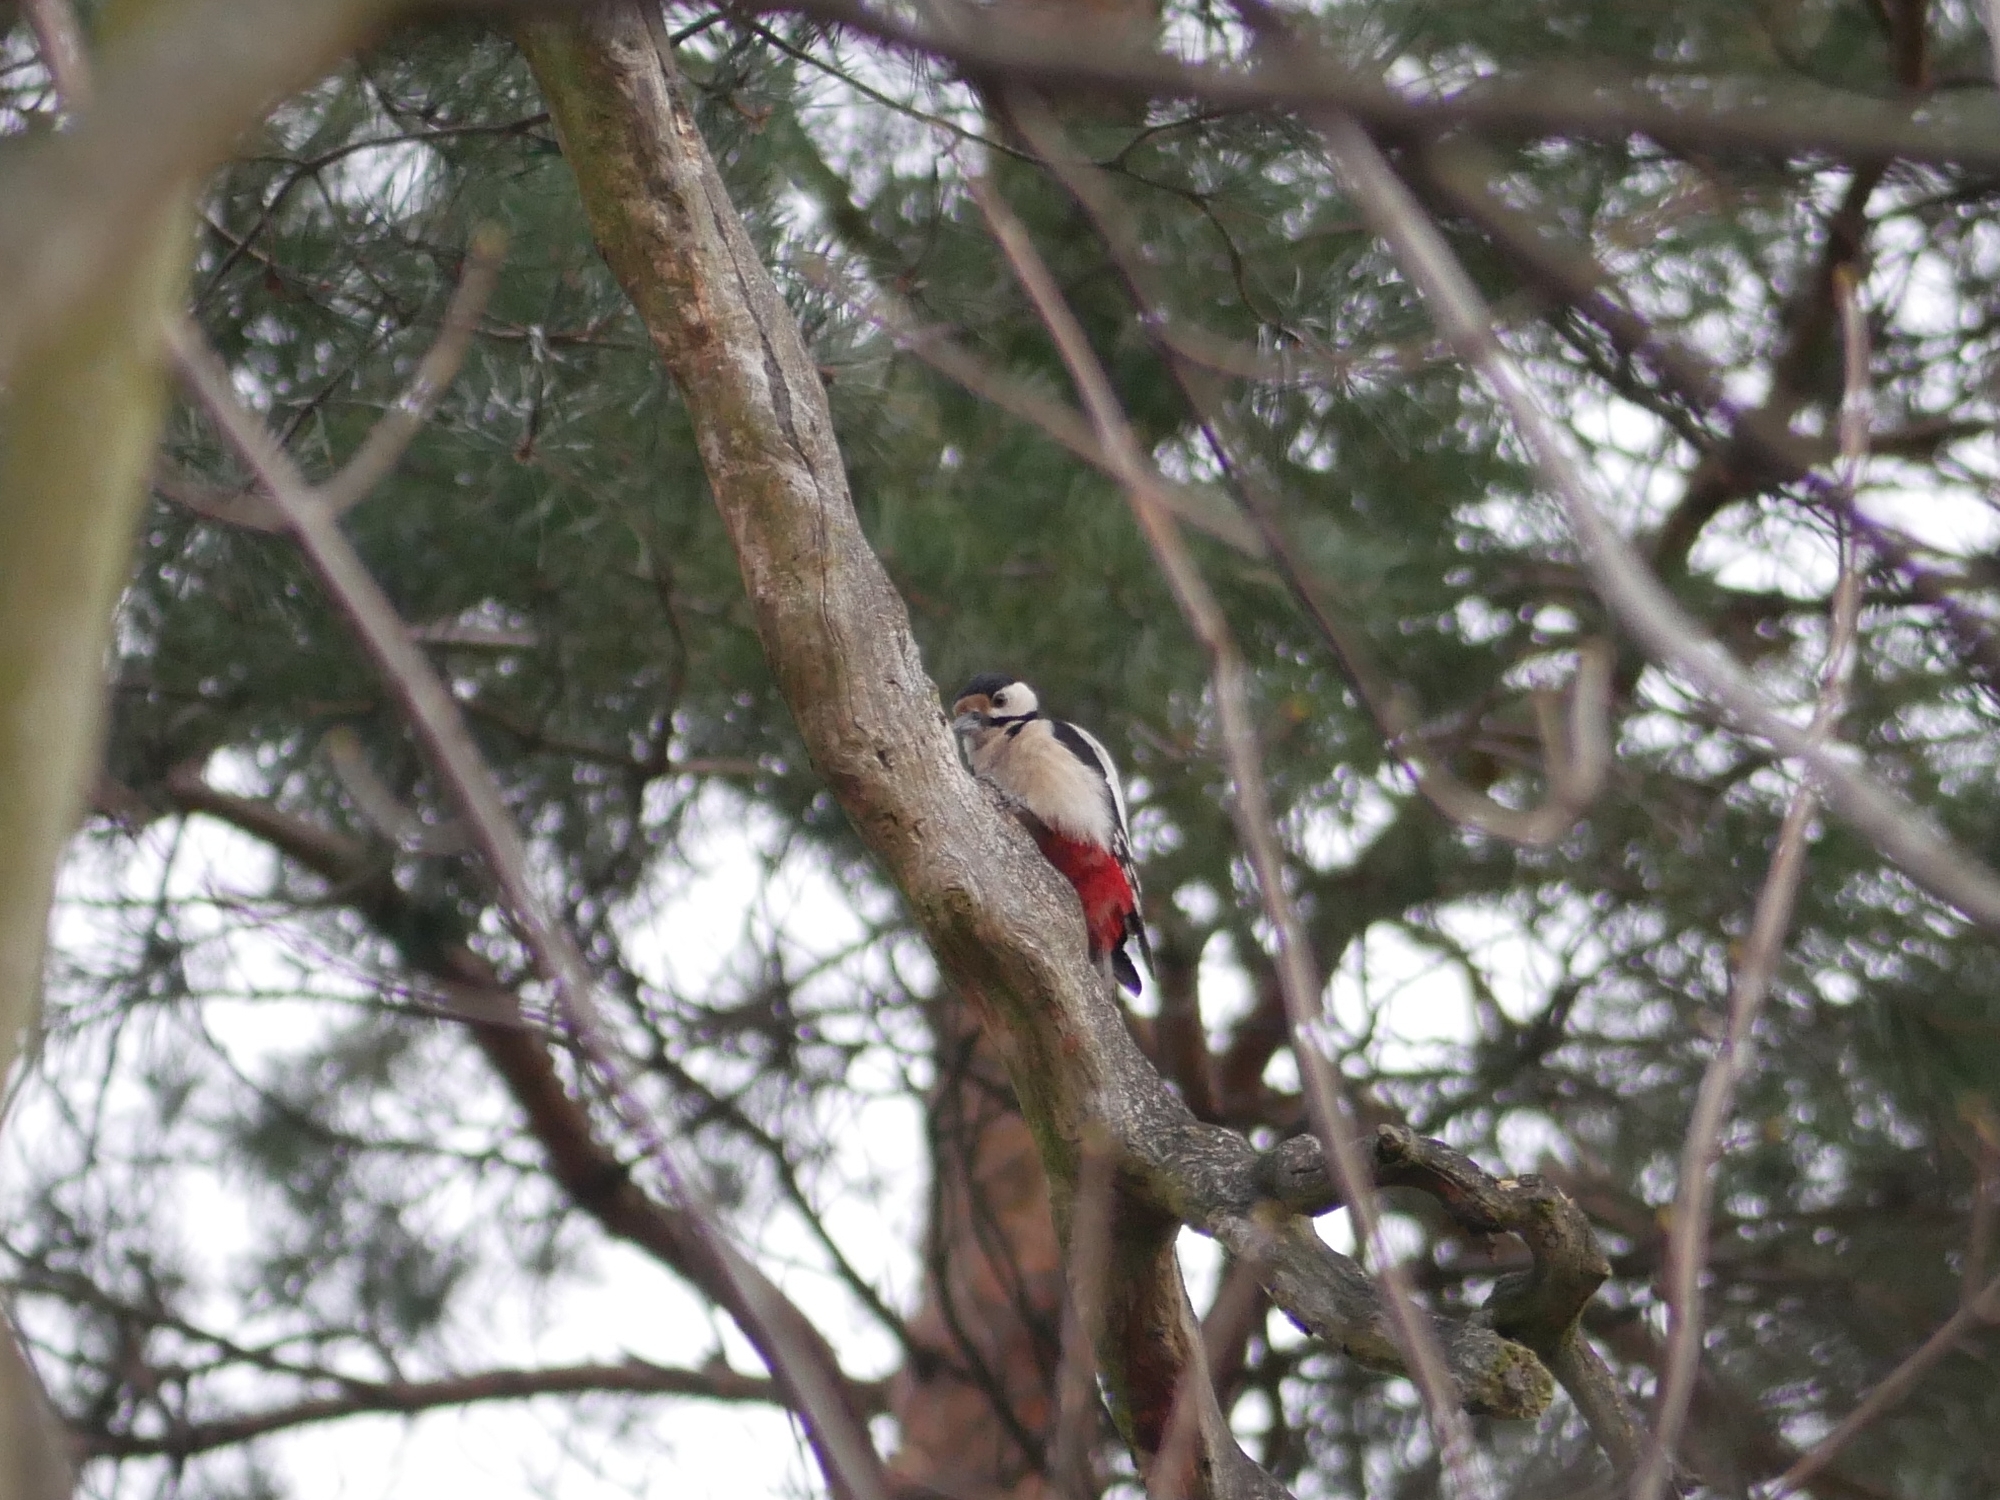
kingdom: Animalia
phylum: Chordata
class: Aves
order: Piciformes
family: Picidae
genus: Dendrocopos
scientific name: Dendrocopos major
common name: Great spotted woodpecker
